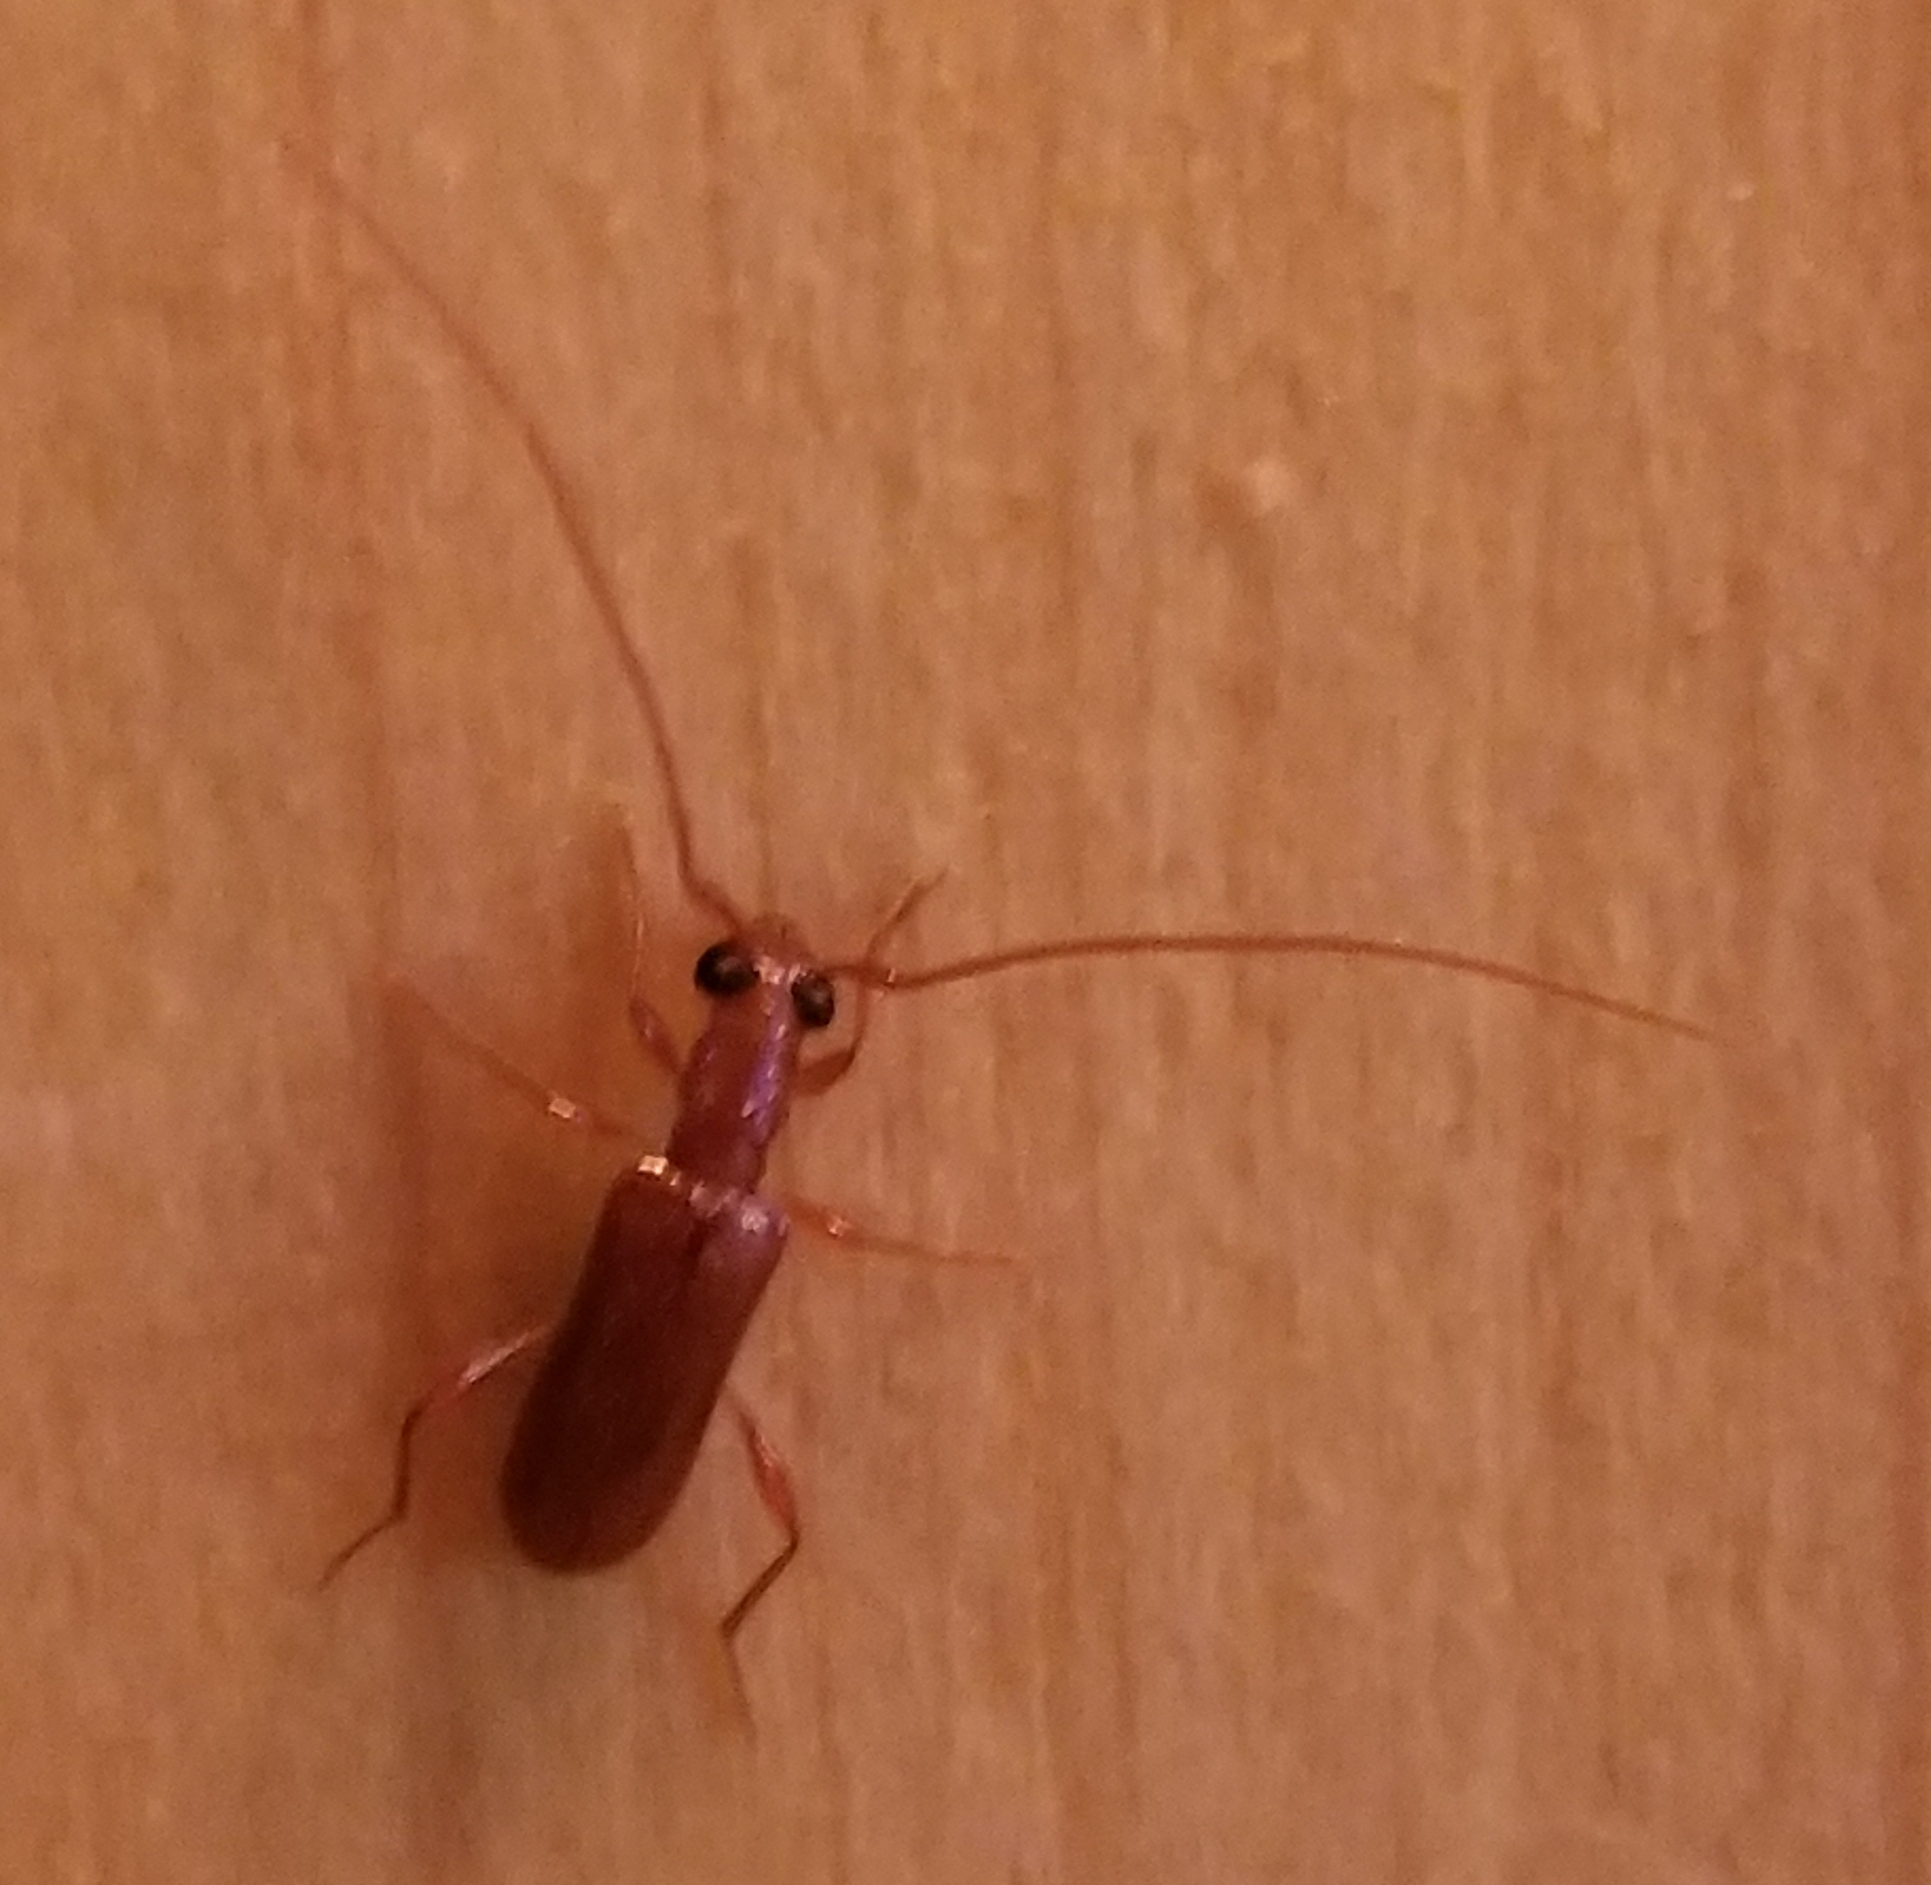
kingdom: Animalia
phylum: Arthropoda
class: Insecta
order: Coleoptera
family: Cerambycidae
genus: Obrium
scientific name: Obrium rufulum
